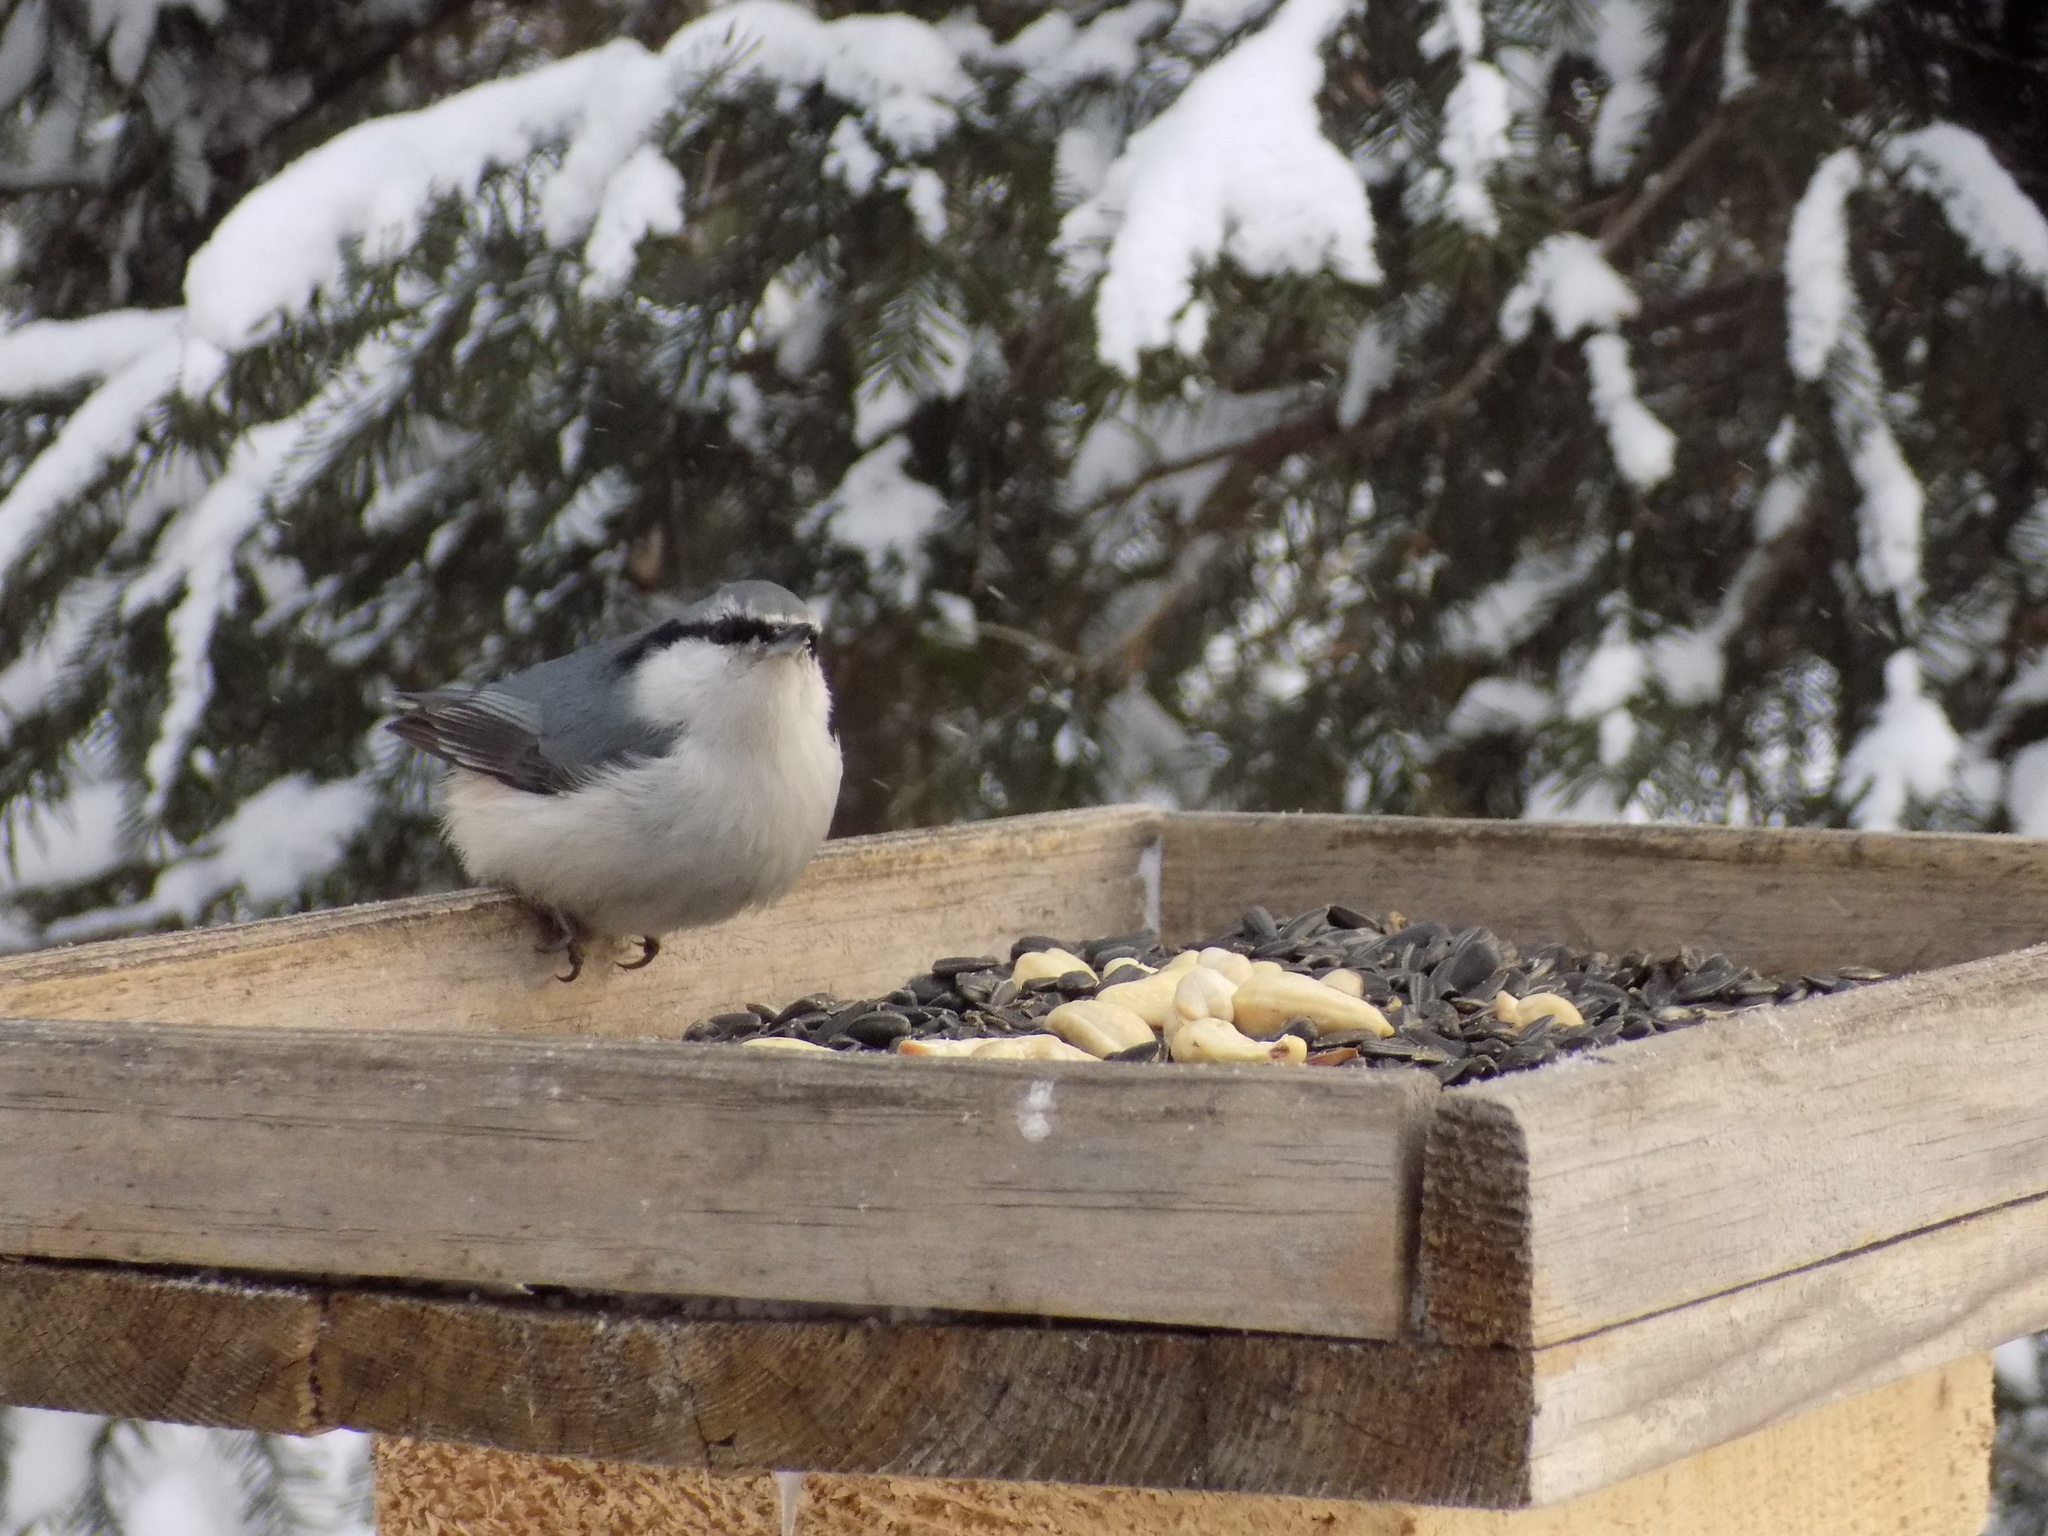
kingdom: Animalia
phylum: Chordata
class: Aves
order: Passeriformes
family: Sittidae
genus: Sitta
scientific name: Sitta europaea
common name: Eurasian nuthatch
